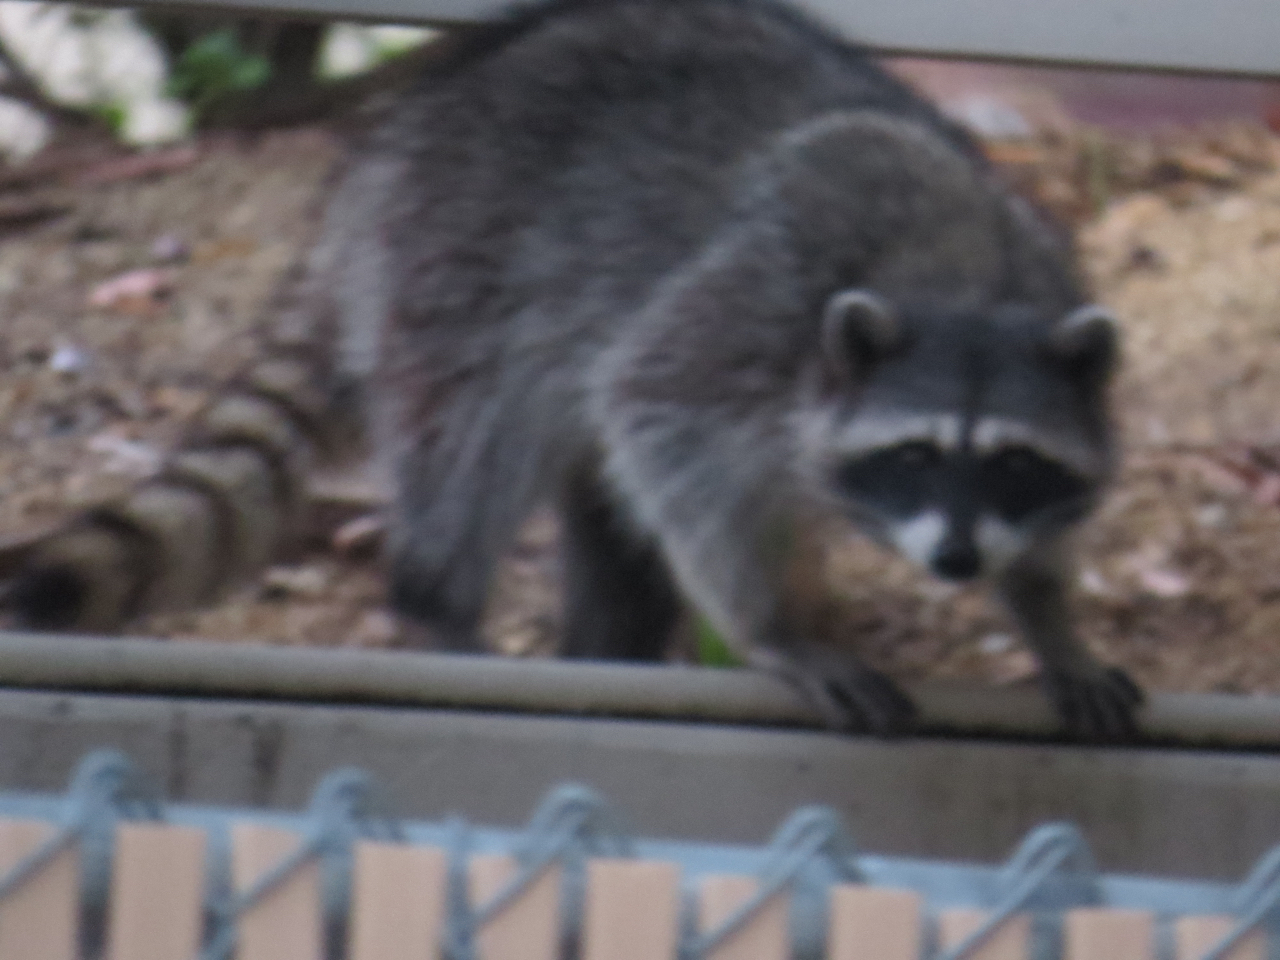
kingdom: Animalia
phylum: Chordata
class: Mammalia
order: Carnivora
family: Procyonidae
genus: Procyon
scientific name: Procyon lotor
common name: Raccoon
